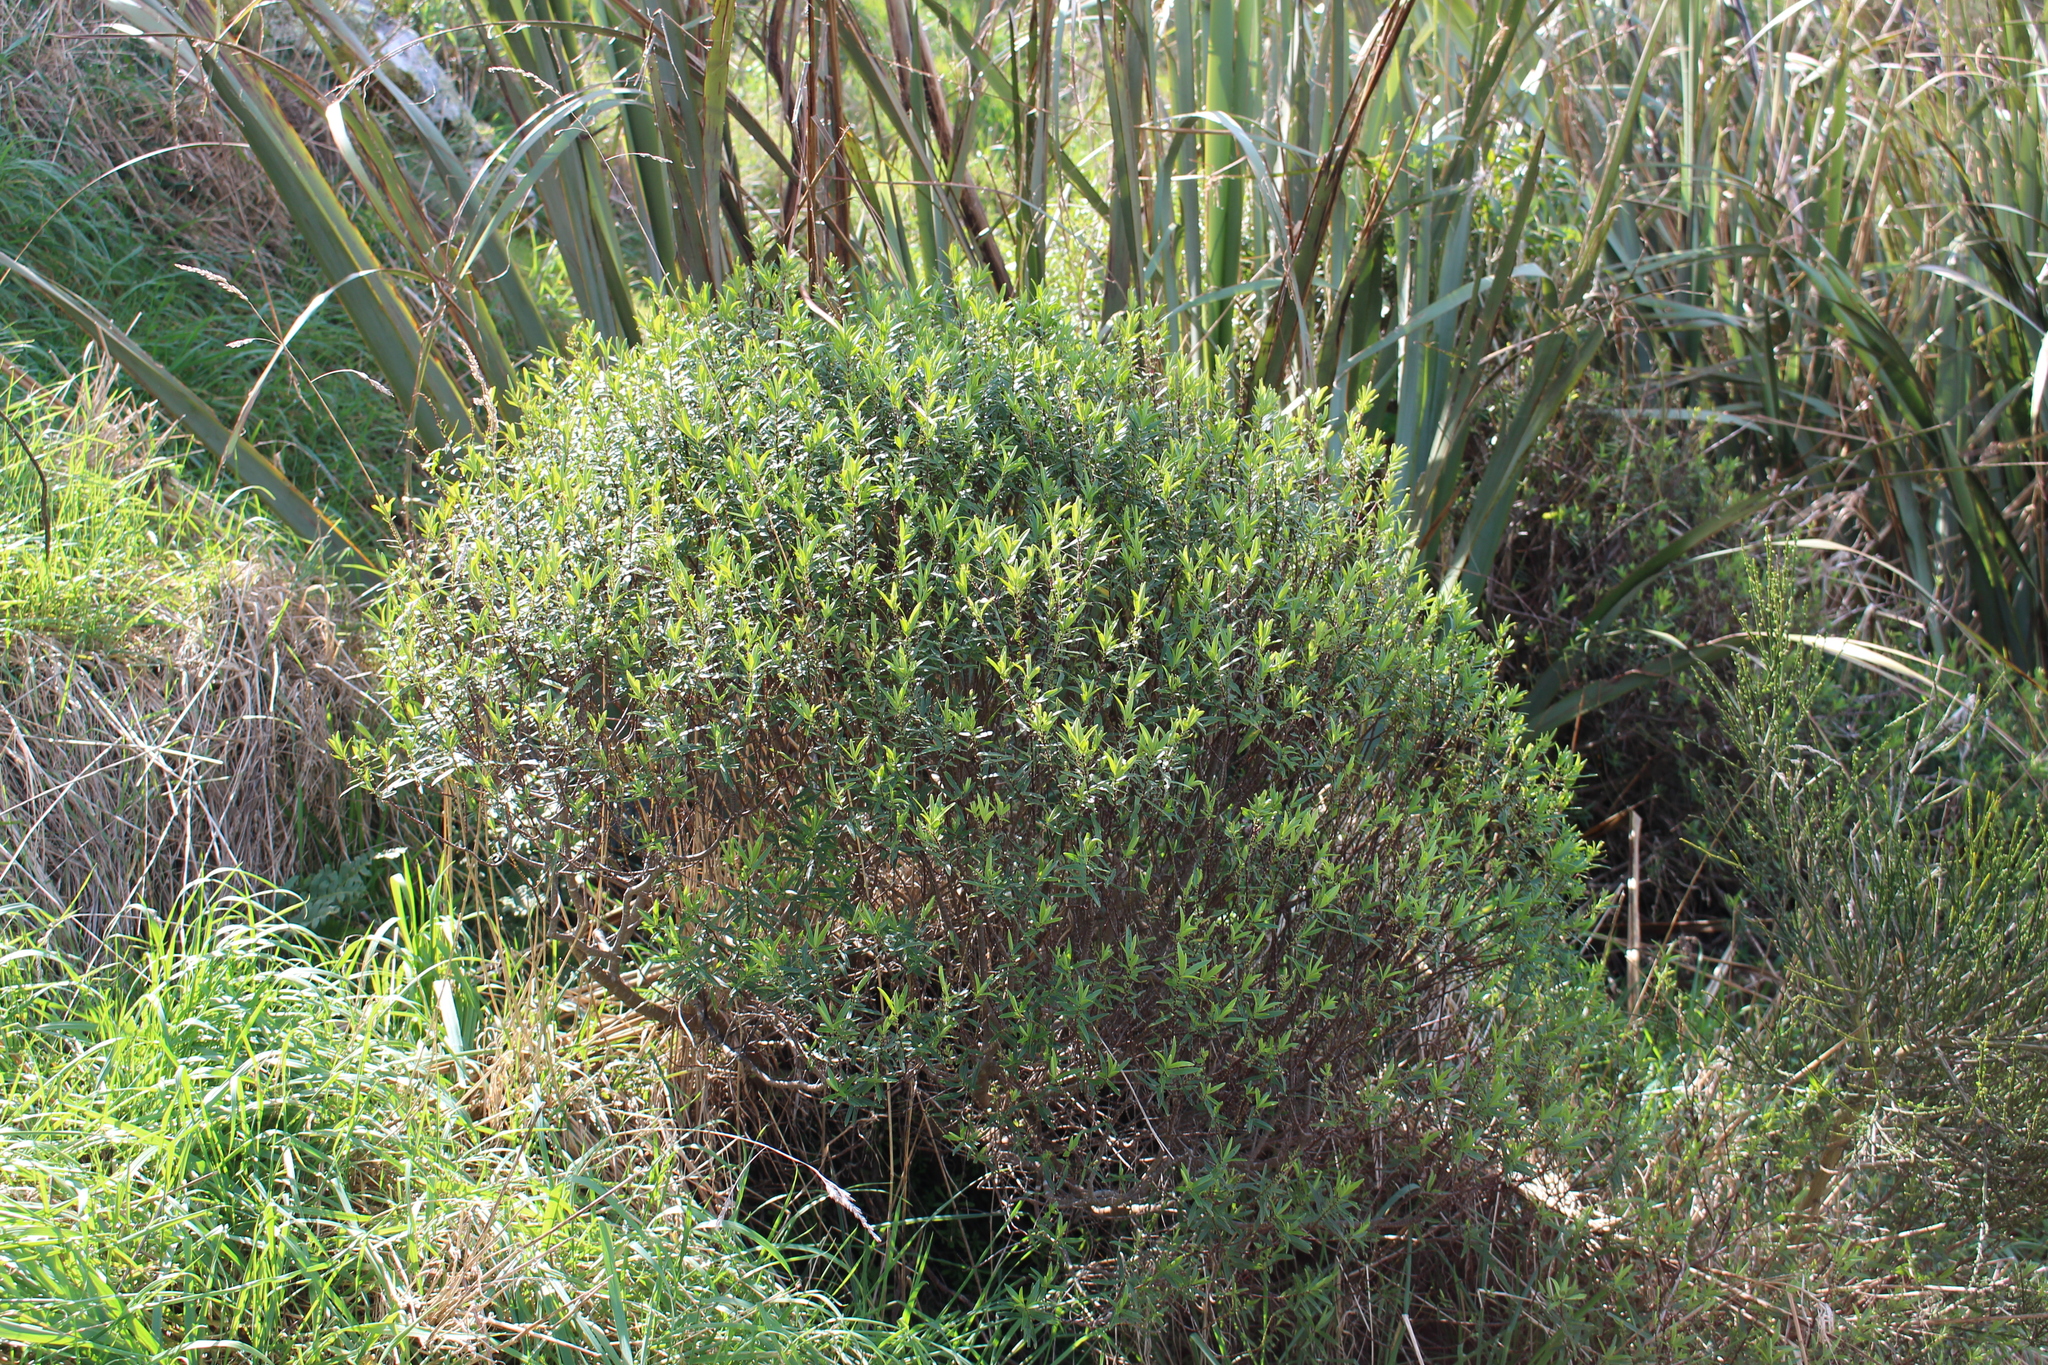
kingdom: Plantae
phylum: Tracheophyta
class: Magnoliopsida
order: Lamiales
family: Plantaginaceae
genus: Veronica
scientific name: Veronica stricta
